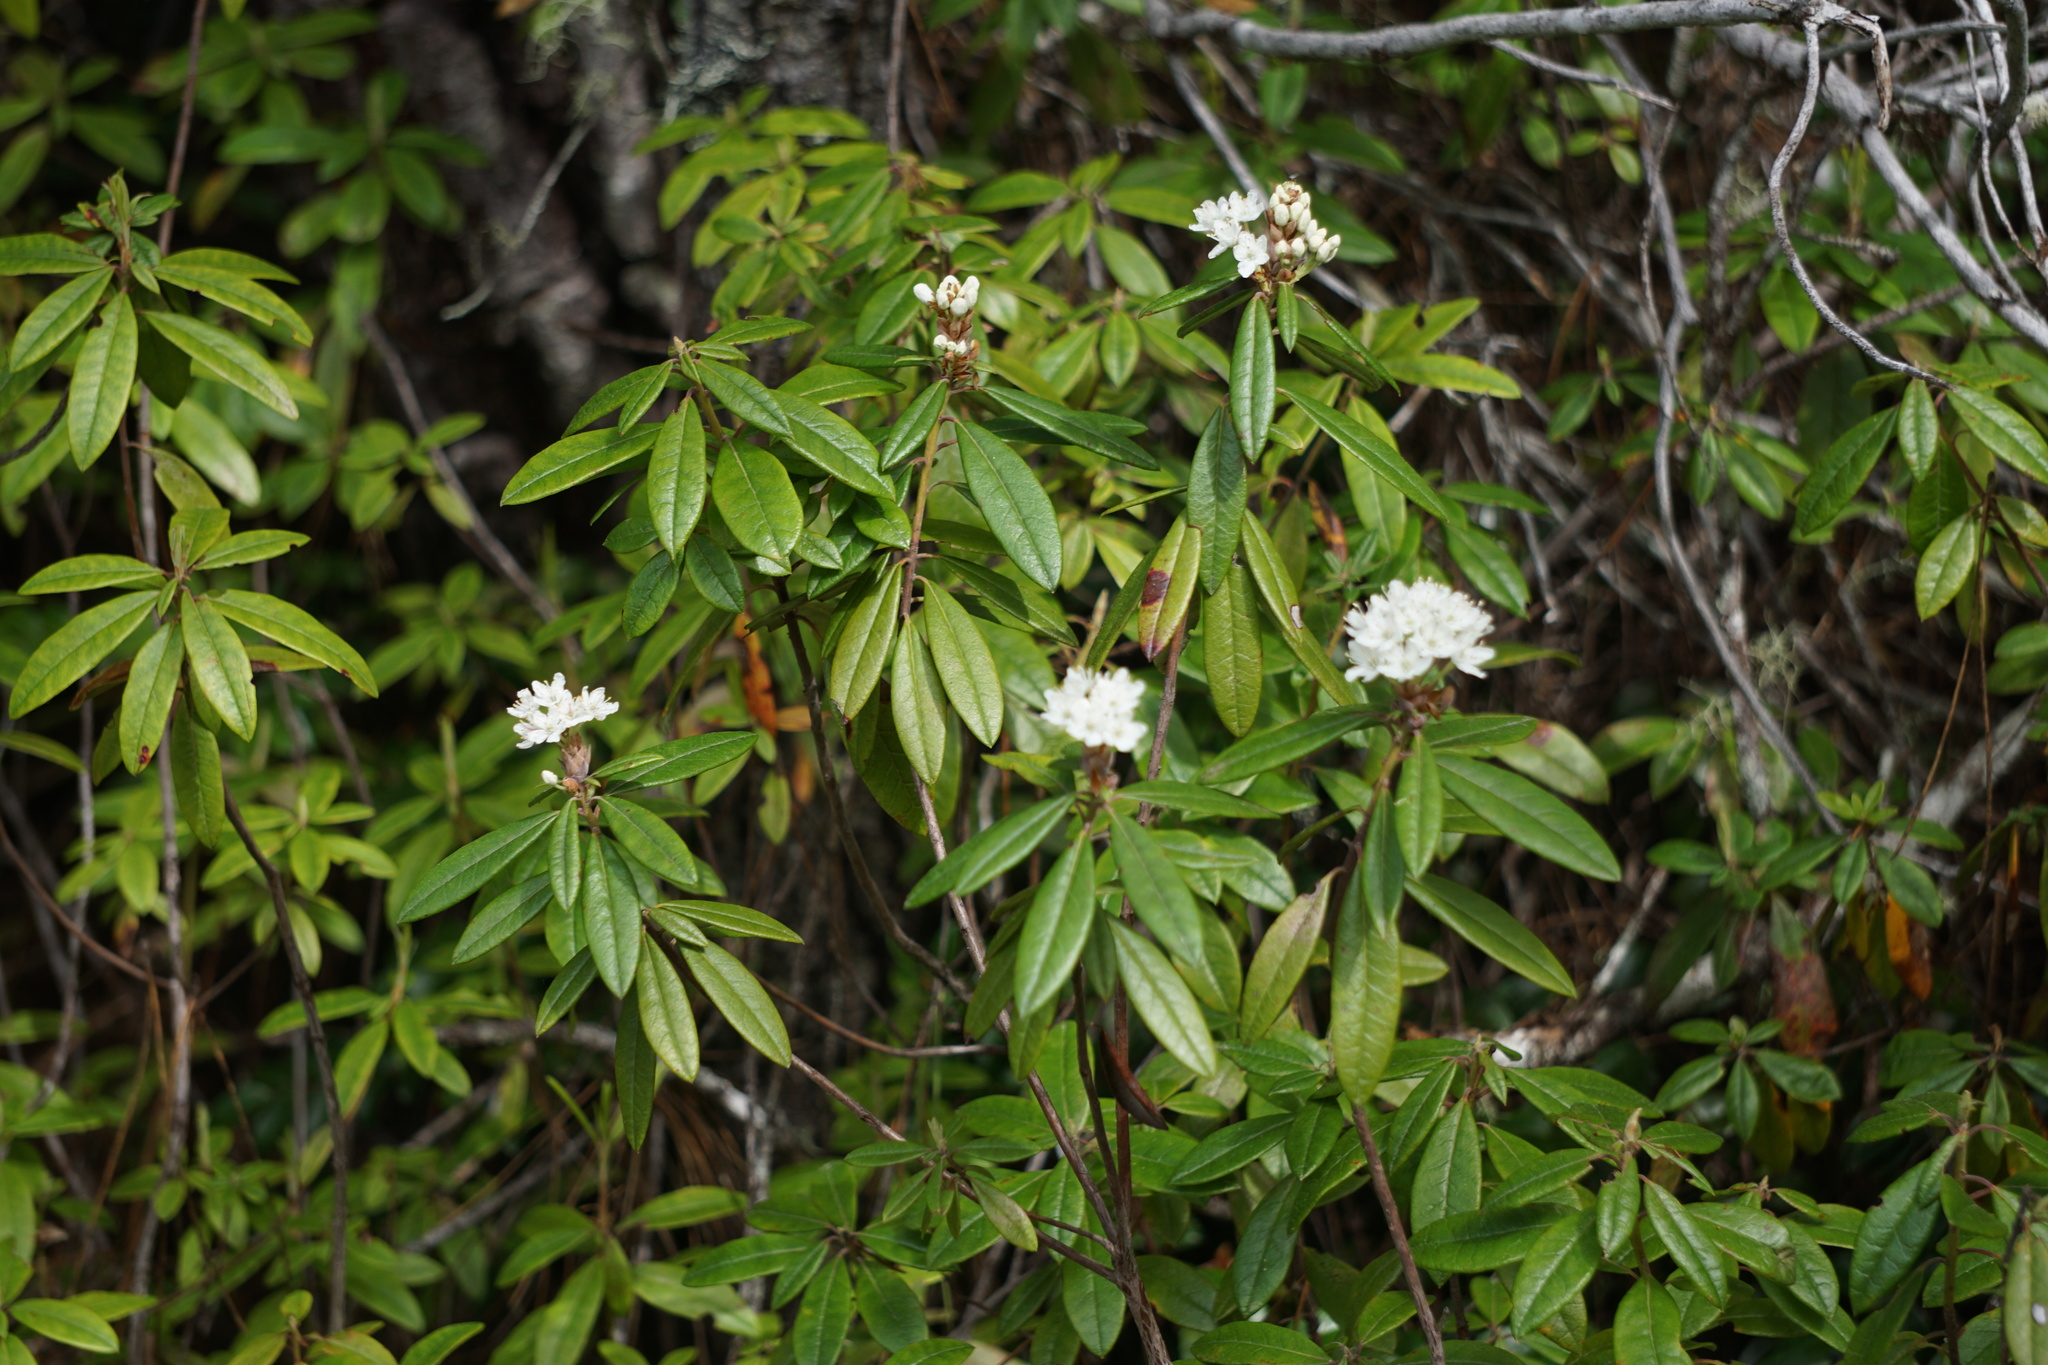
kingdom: Plantae
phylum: Tracheophyta
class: Magnoliopsida
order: Ericales
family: Ericaceae
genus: Rhododendron
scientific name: Rhododendron columbianum
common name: Western labrador tea
